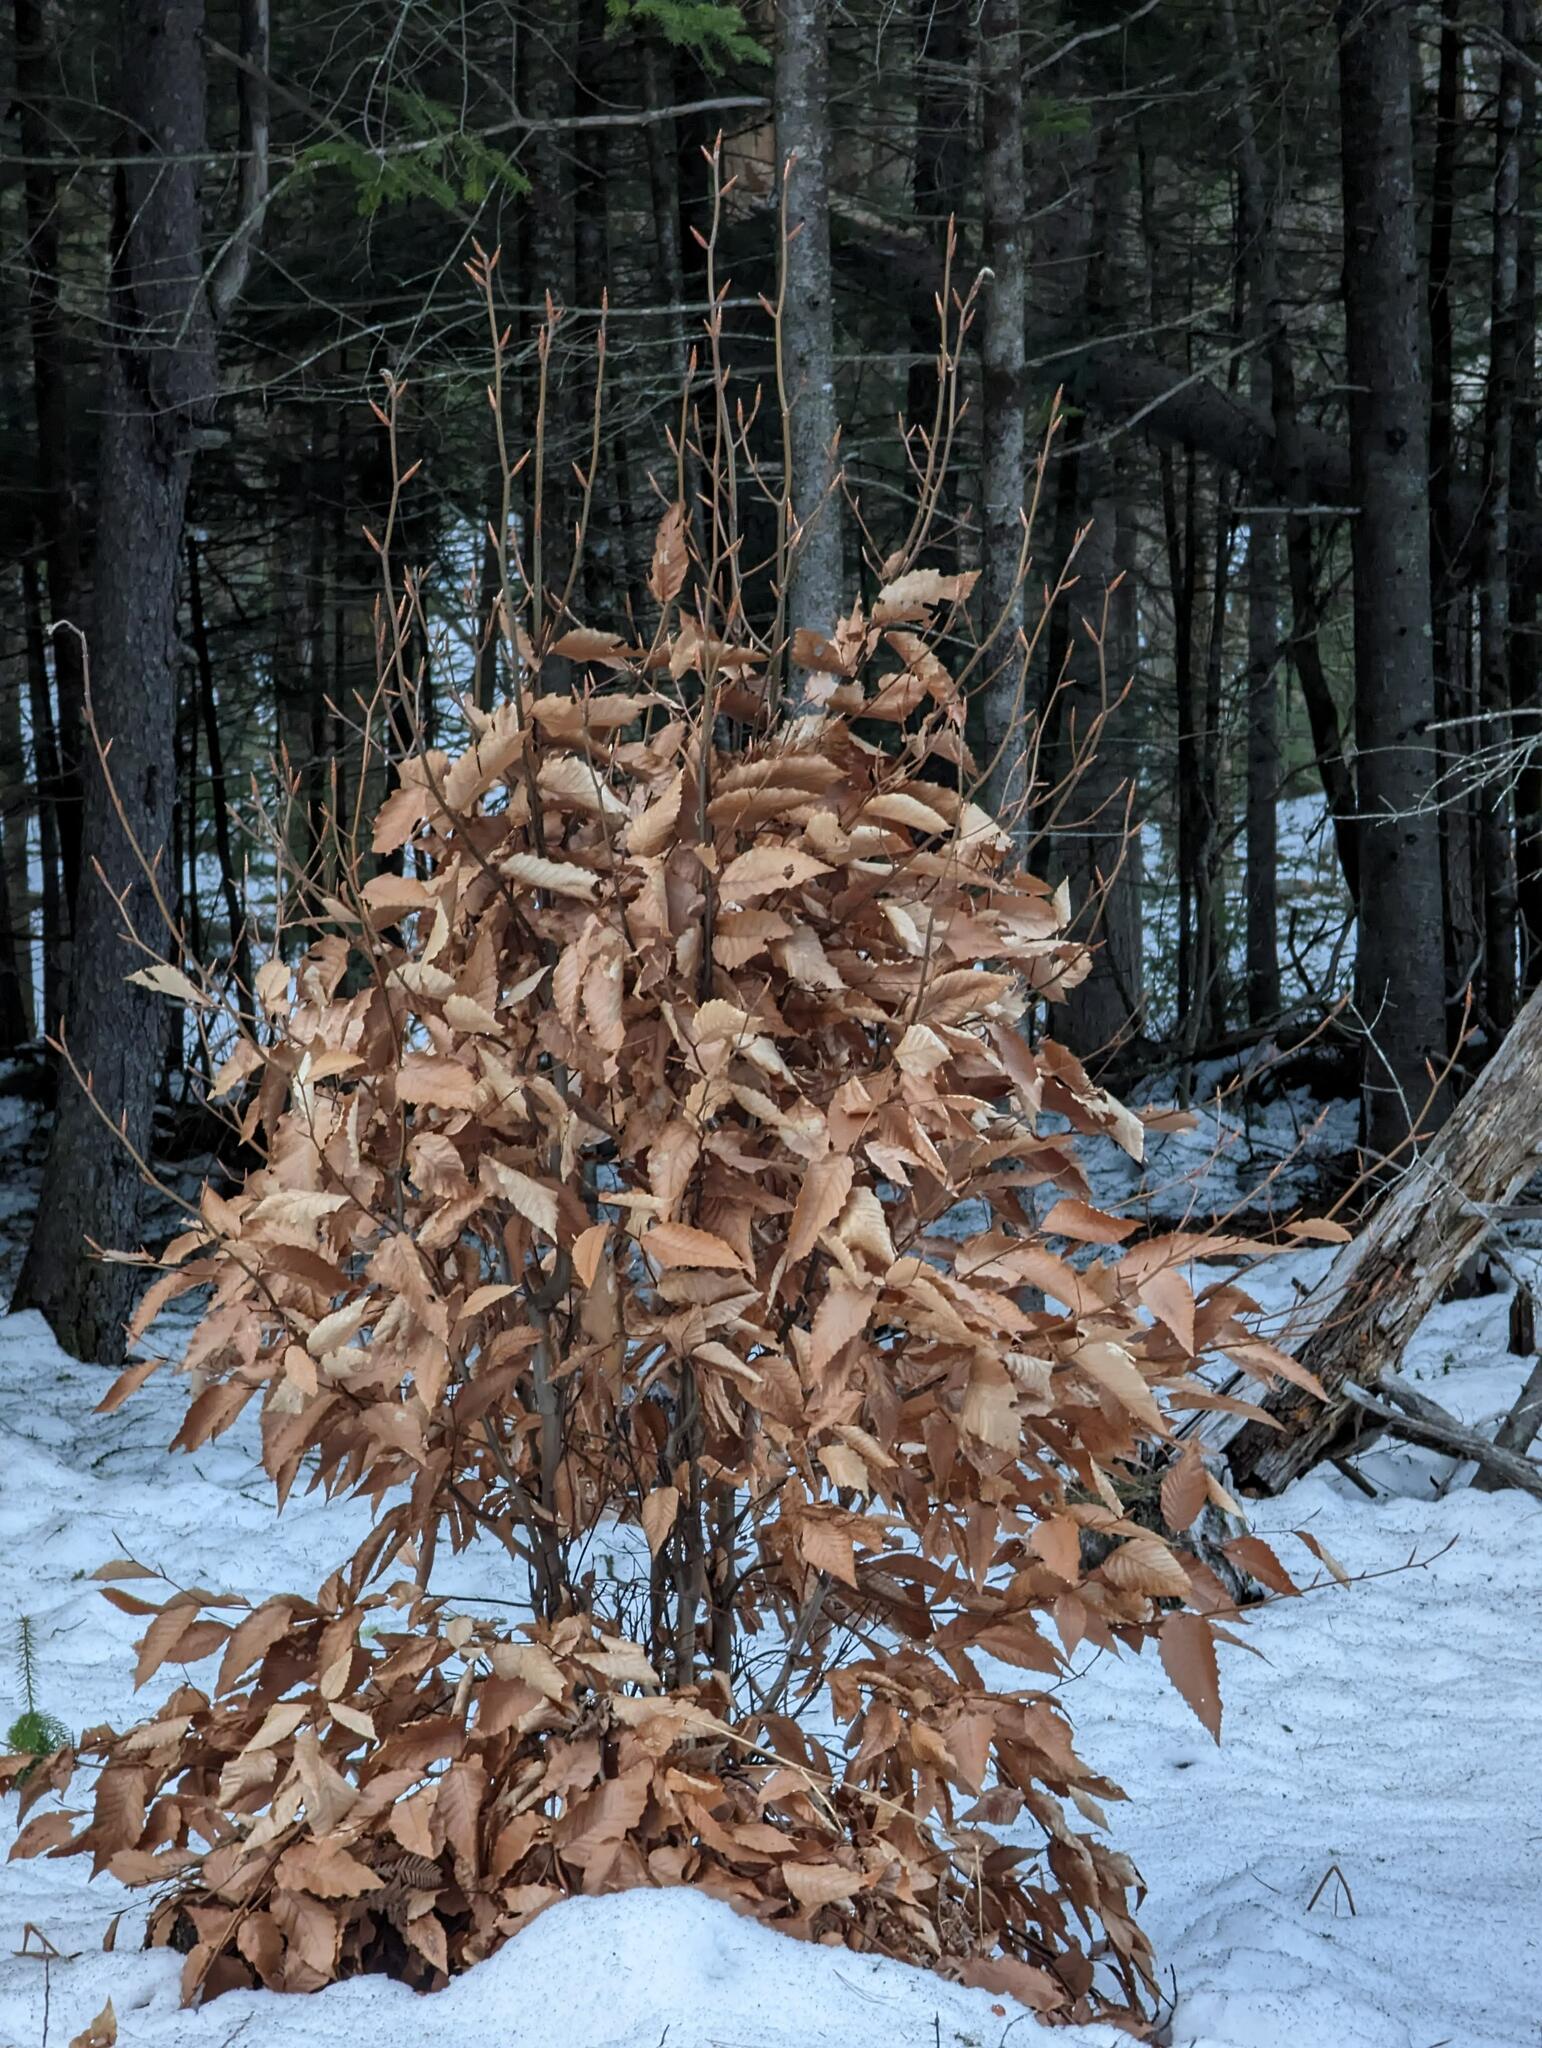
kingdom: Plantae
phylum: Tracheophyta
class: Magnoliopsida
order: Fagales
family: Fagaceae
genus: Fagus
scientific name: Fagus grandifolia
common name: American beech
